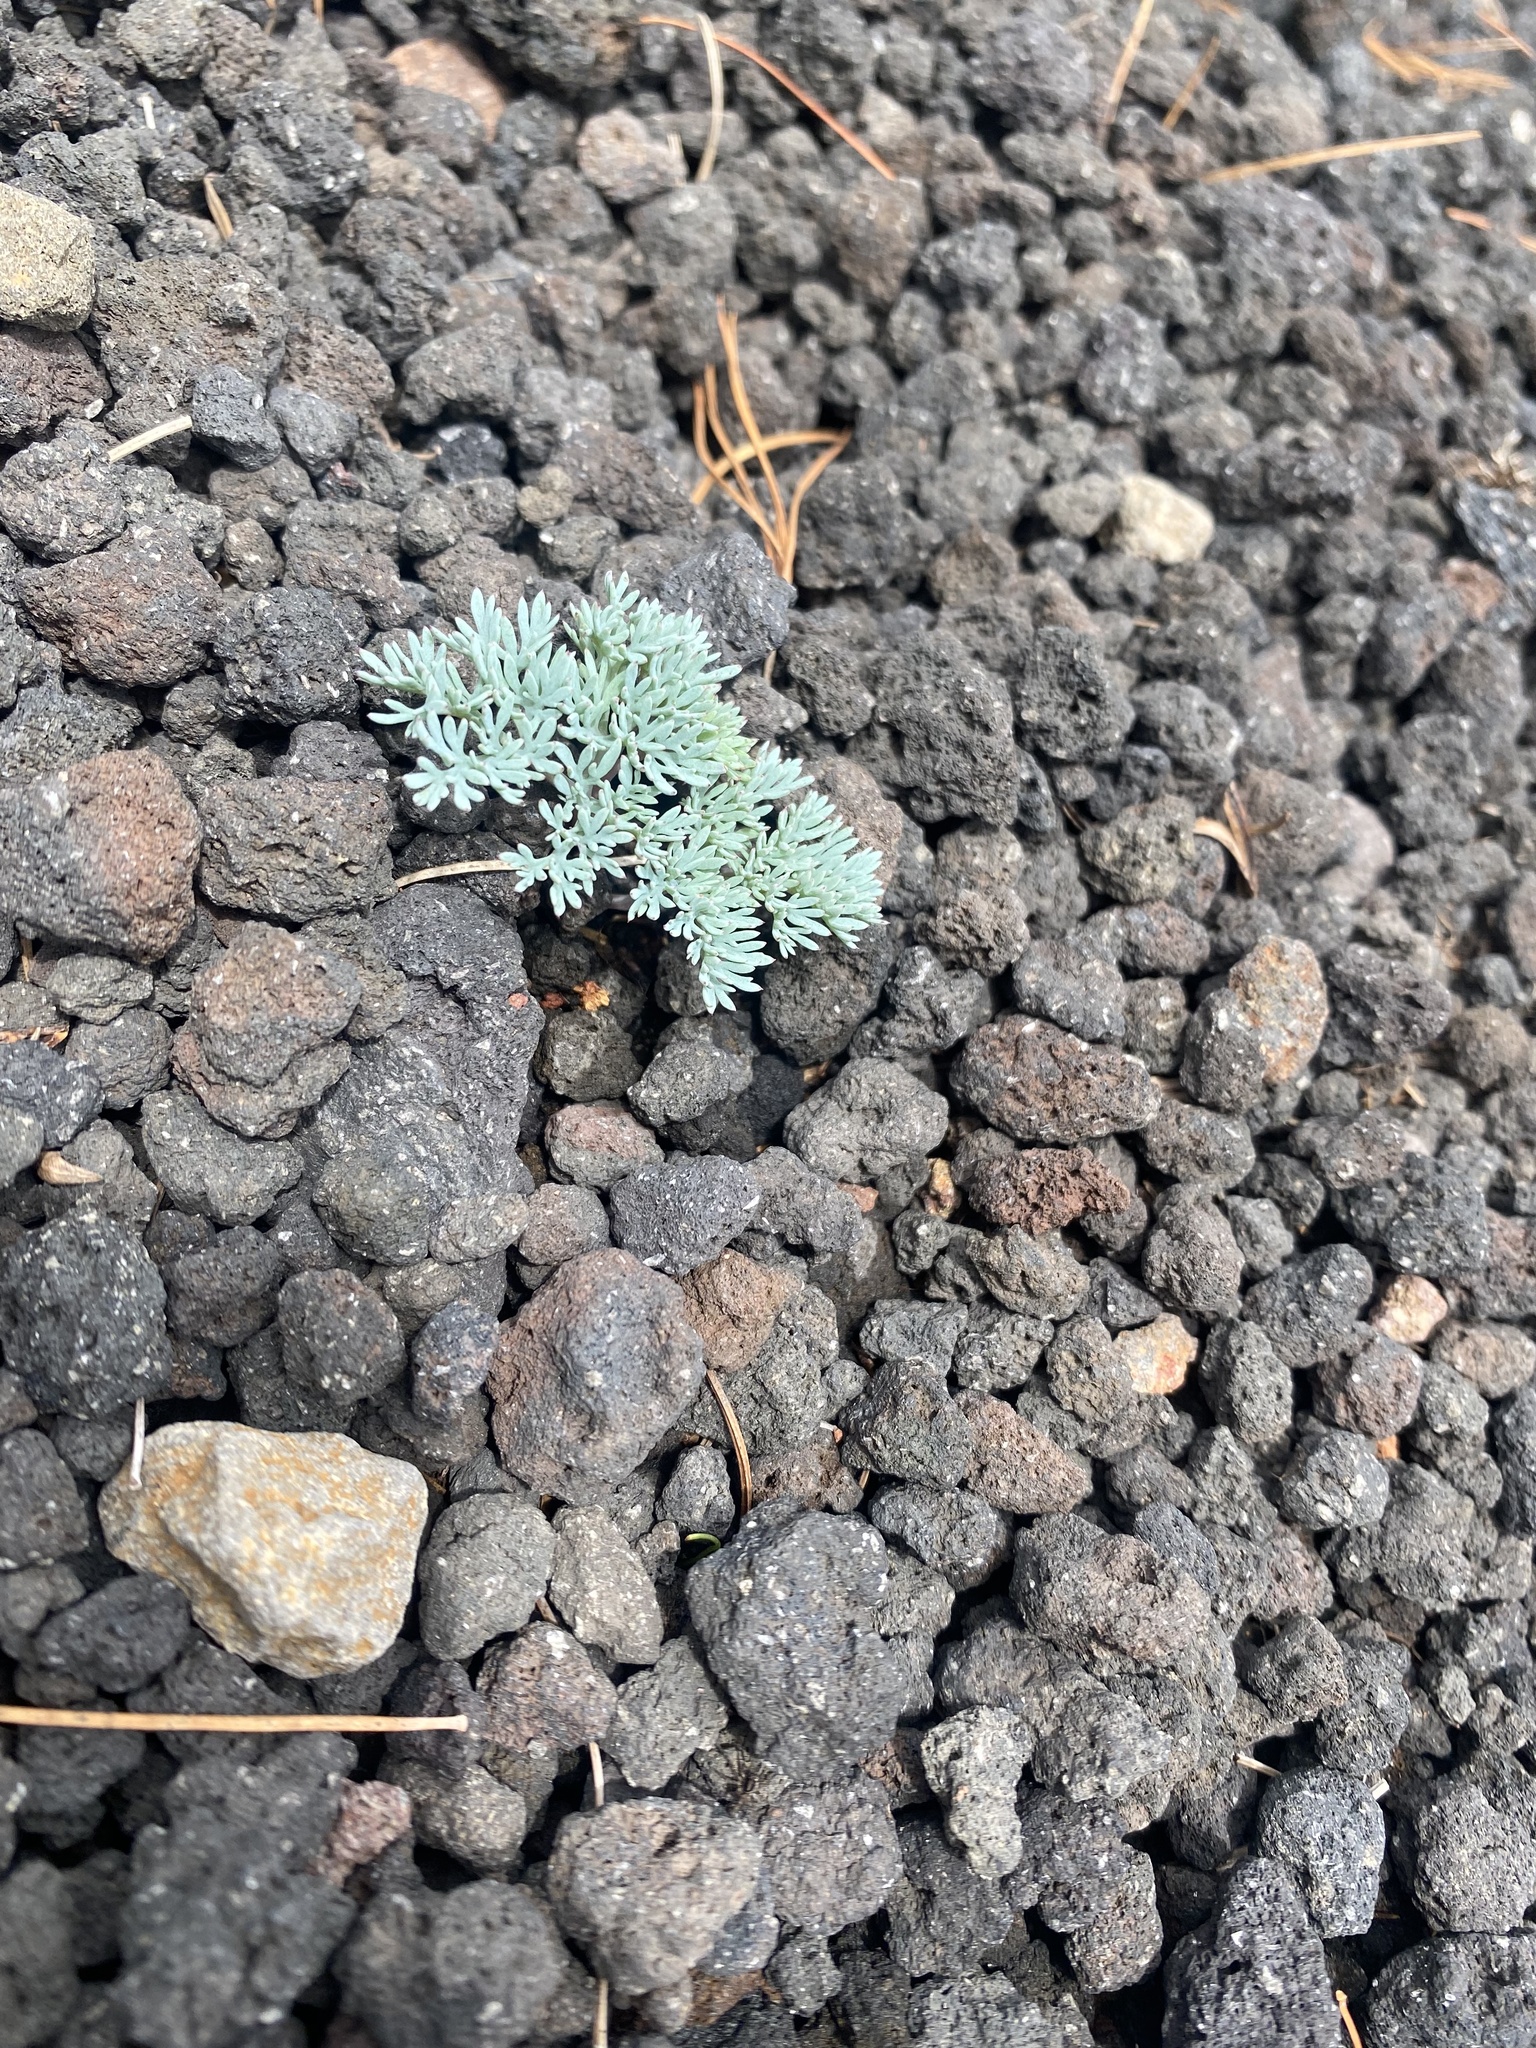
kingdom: Plantae
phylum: Tracheophyta
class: Magnoliopsida
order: Ranunculales
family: Papaveraceae
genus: Dicentra
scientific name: Dicentra peregrina
